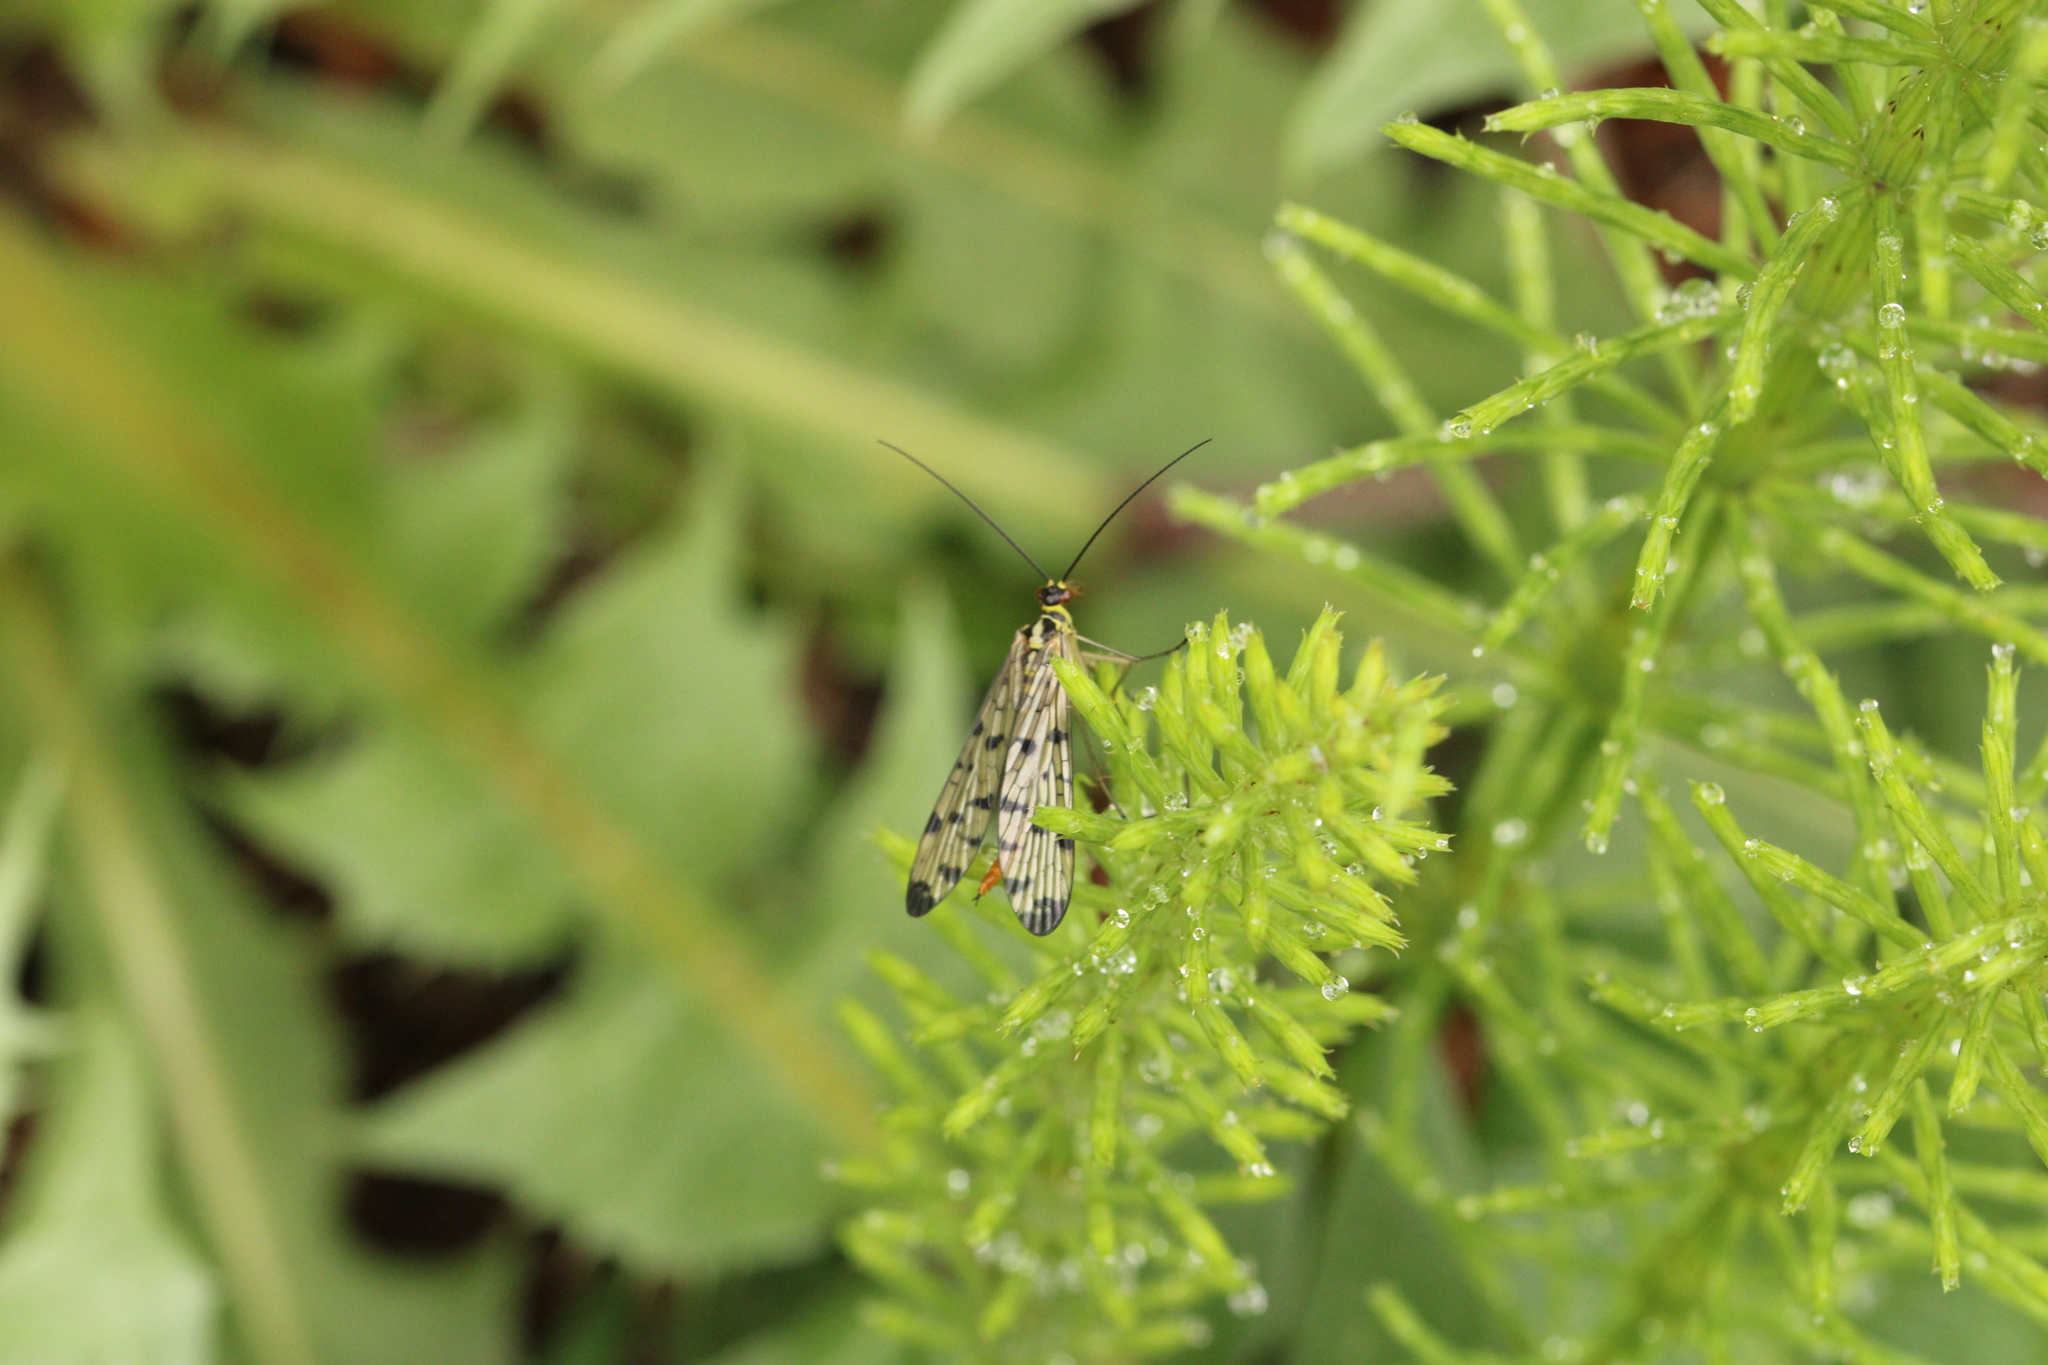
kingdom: Animalia
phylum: Arthropoda
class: Insecta
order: Mecoptera
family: Panorpidae
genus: Panorpa
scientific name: Panorpa germanica
